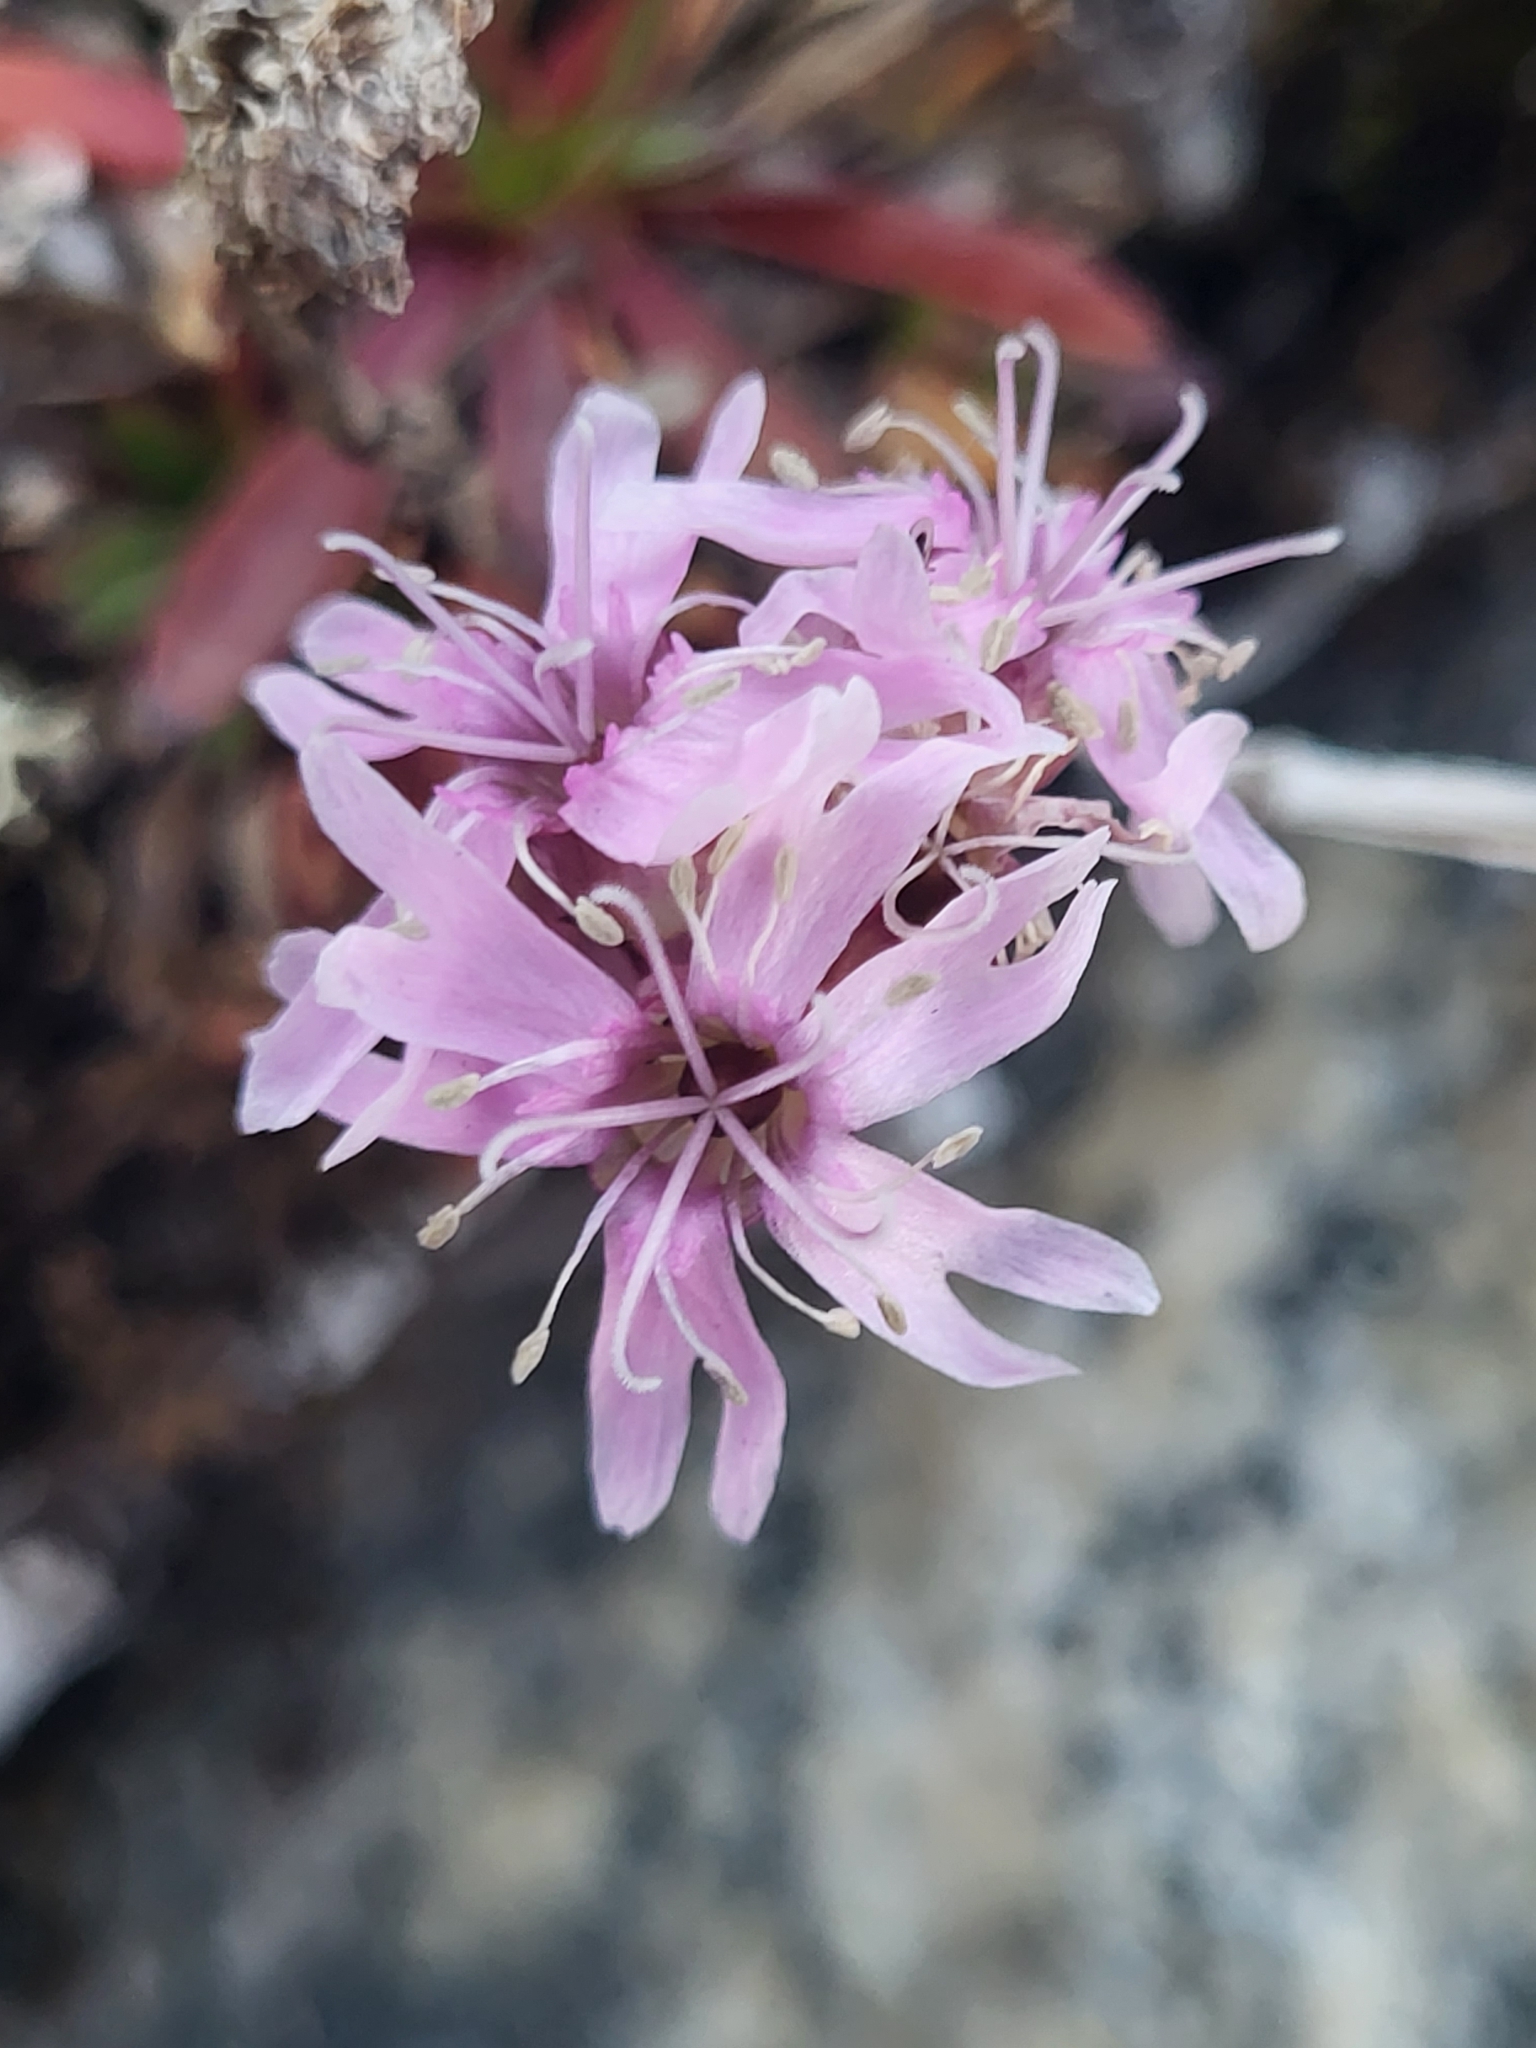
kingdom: Plantae
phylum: Tracheophyta
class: Magnoliopsida
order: Caryophyllales
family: Caryophyllaceae
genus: Viscaria
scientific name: Viscaria alpina
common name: Alpine campion
